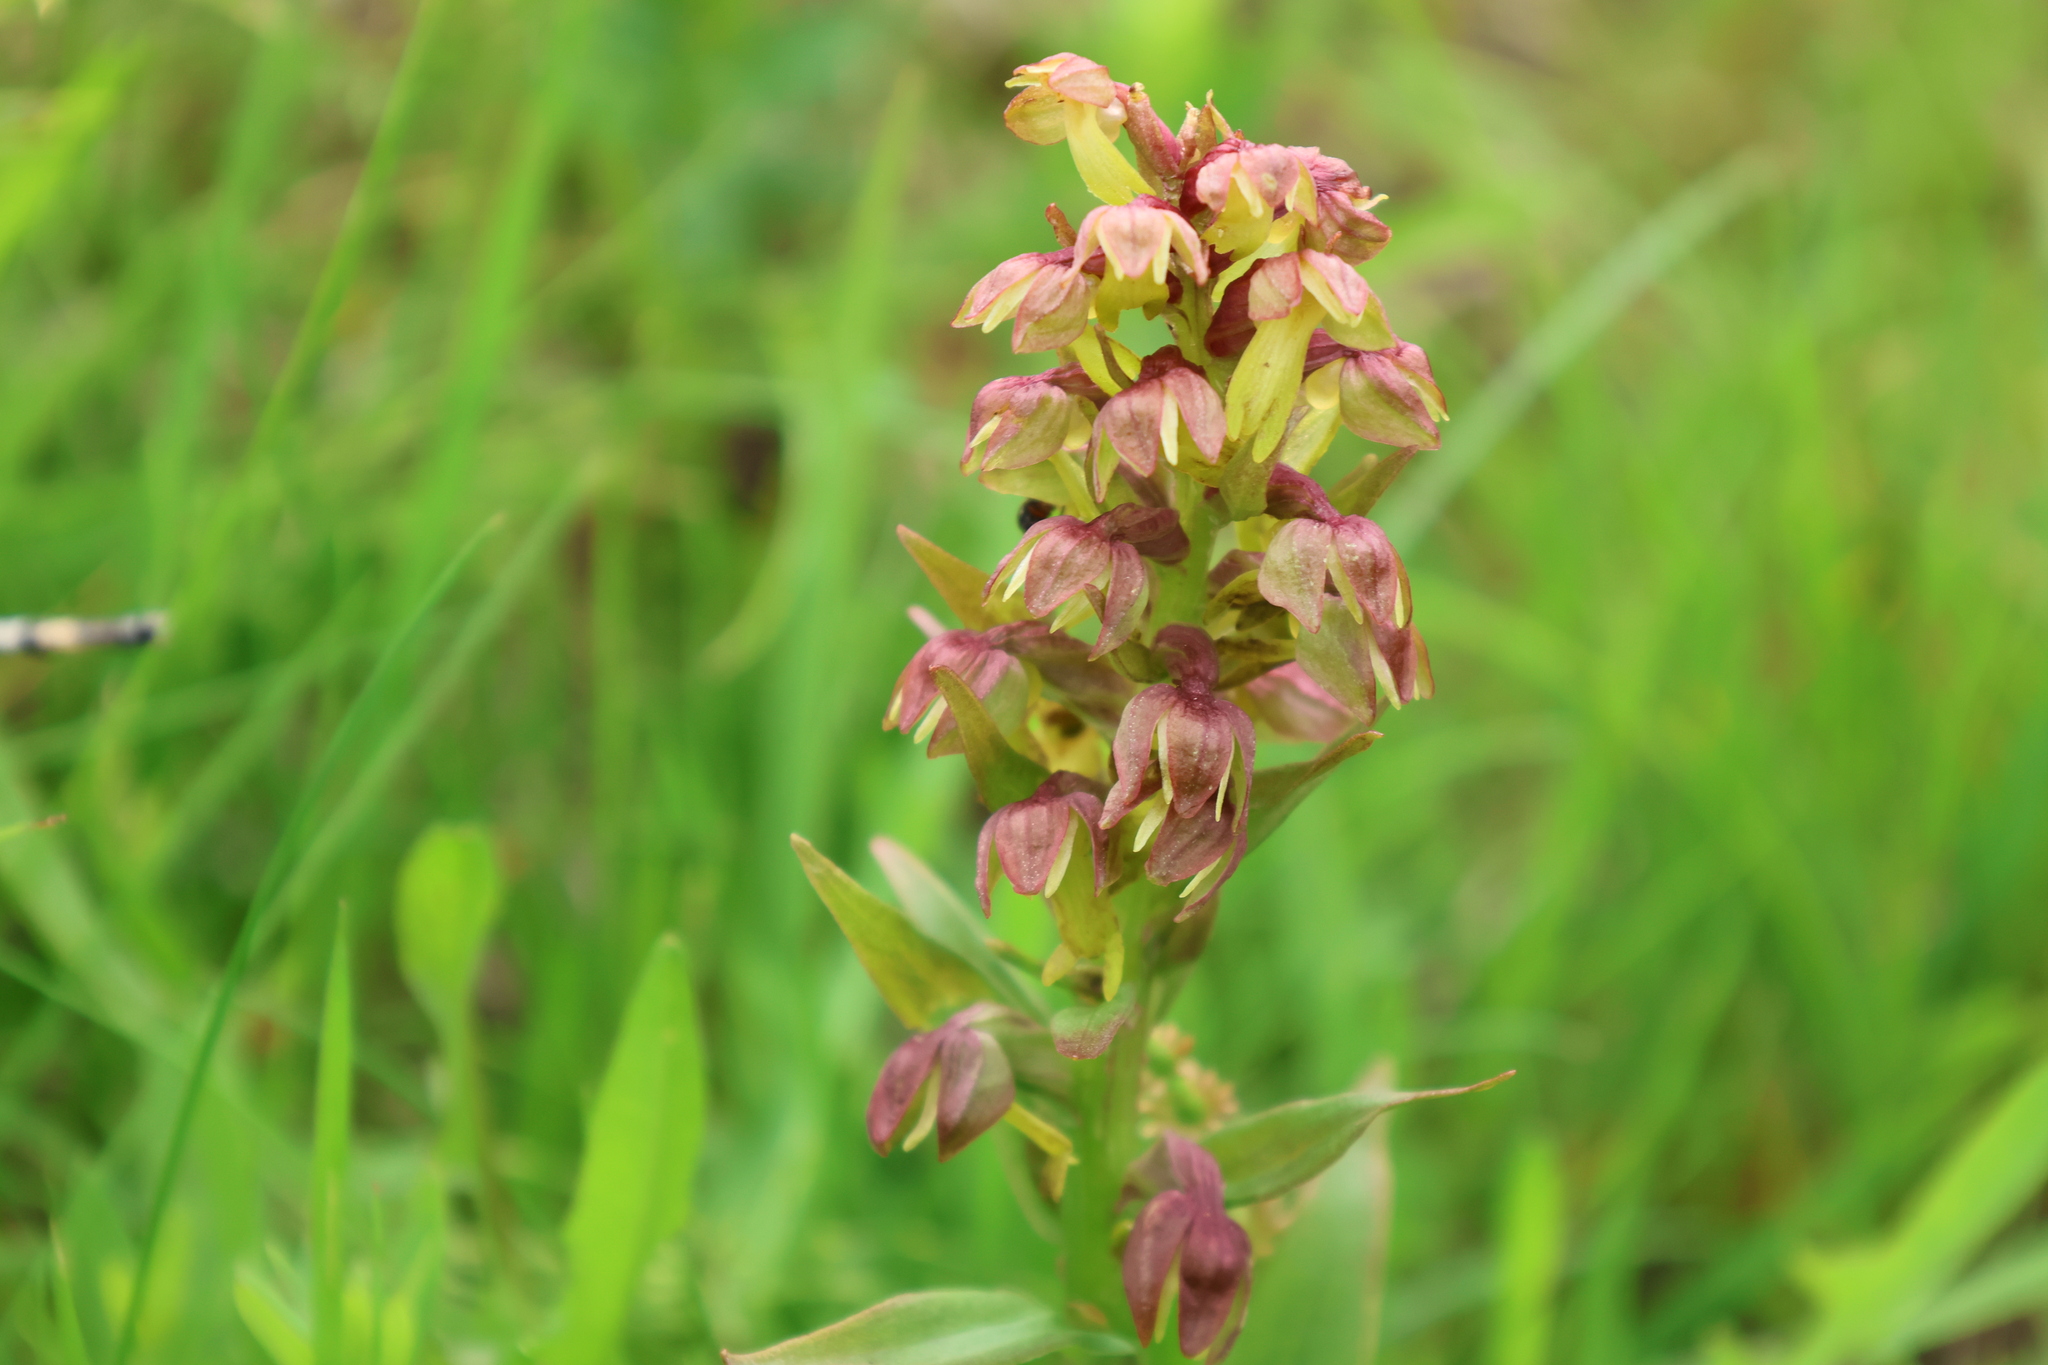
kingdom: Plantae
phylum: Tracheophyta
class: Liliopsida
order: Asparagales
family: Orchidaceae
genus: Dactylorhiza
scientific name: Dactylorhiza viridis
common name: Longbract frog orchid
